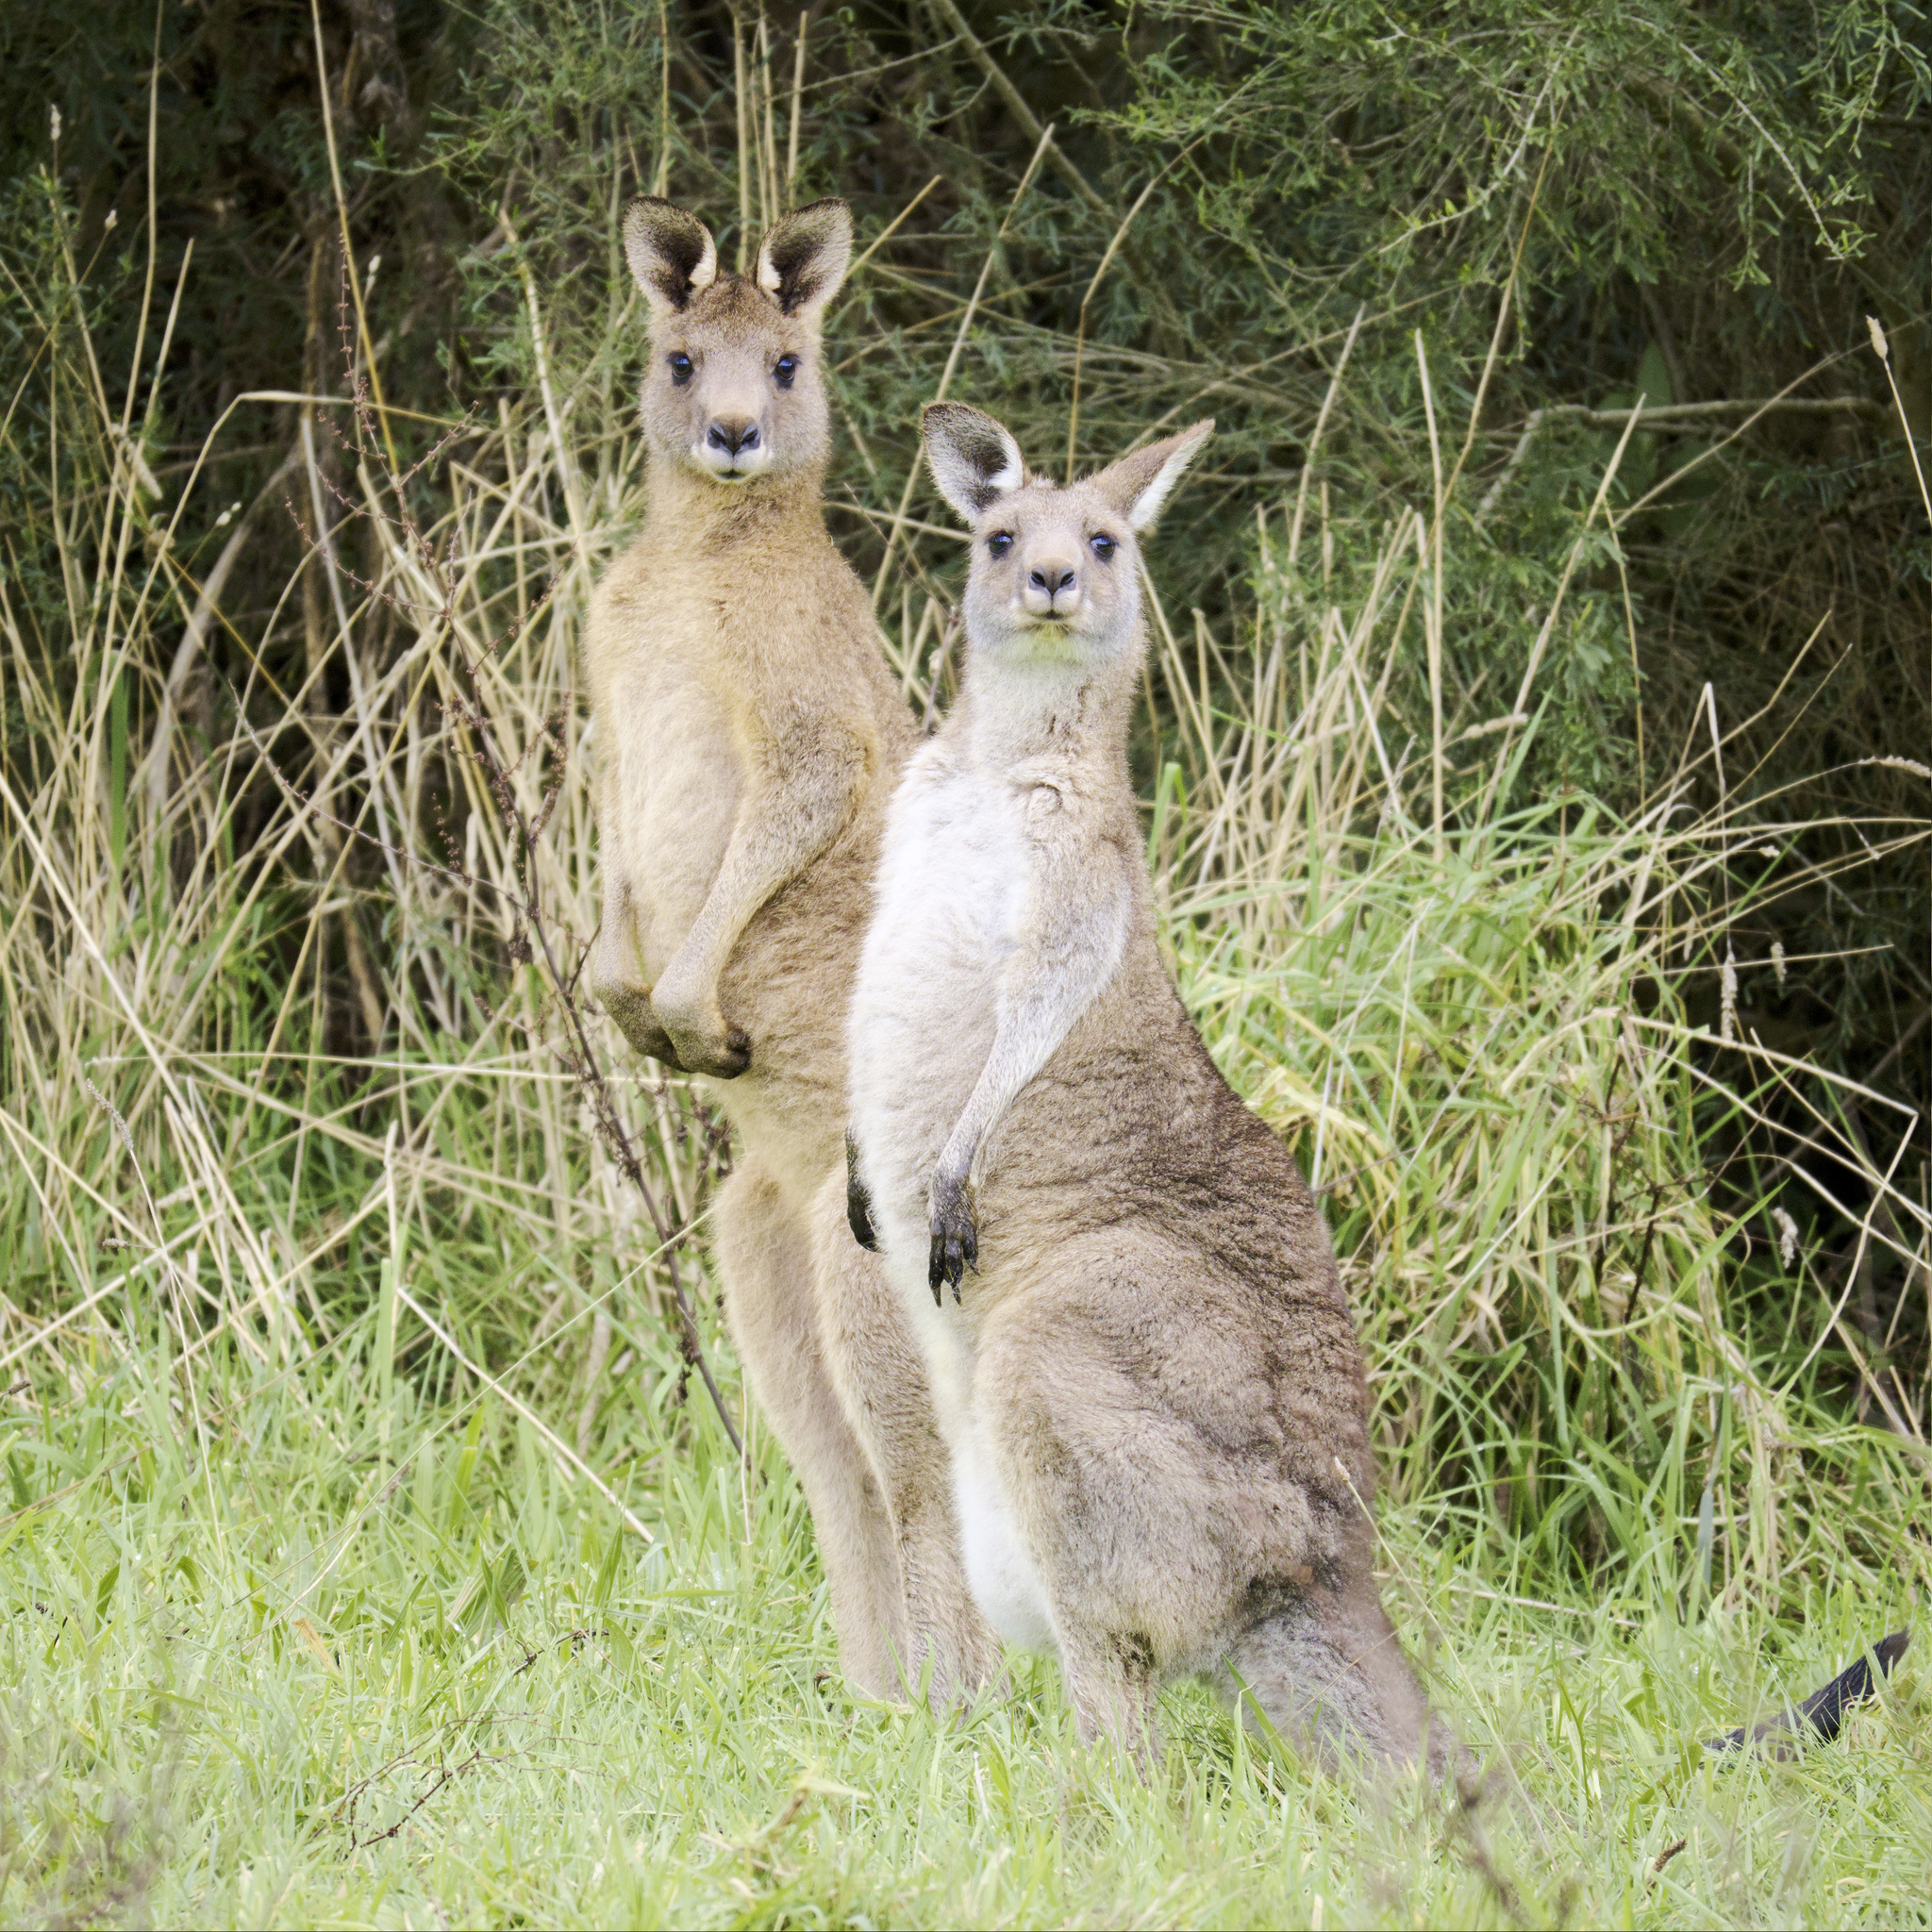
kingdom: Animalia
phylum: Chordata
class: Mammalia
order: Diprotodontia
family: Macropodidae
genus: Macropus
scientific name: Macropus giganteus
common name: Eastern grey kangaroo
